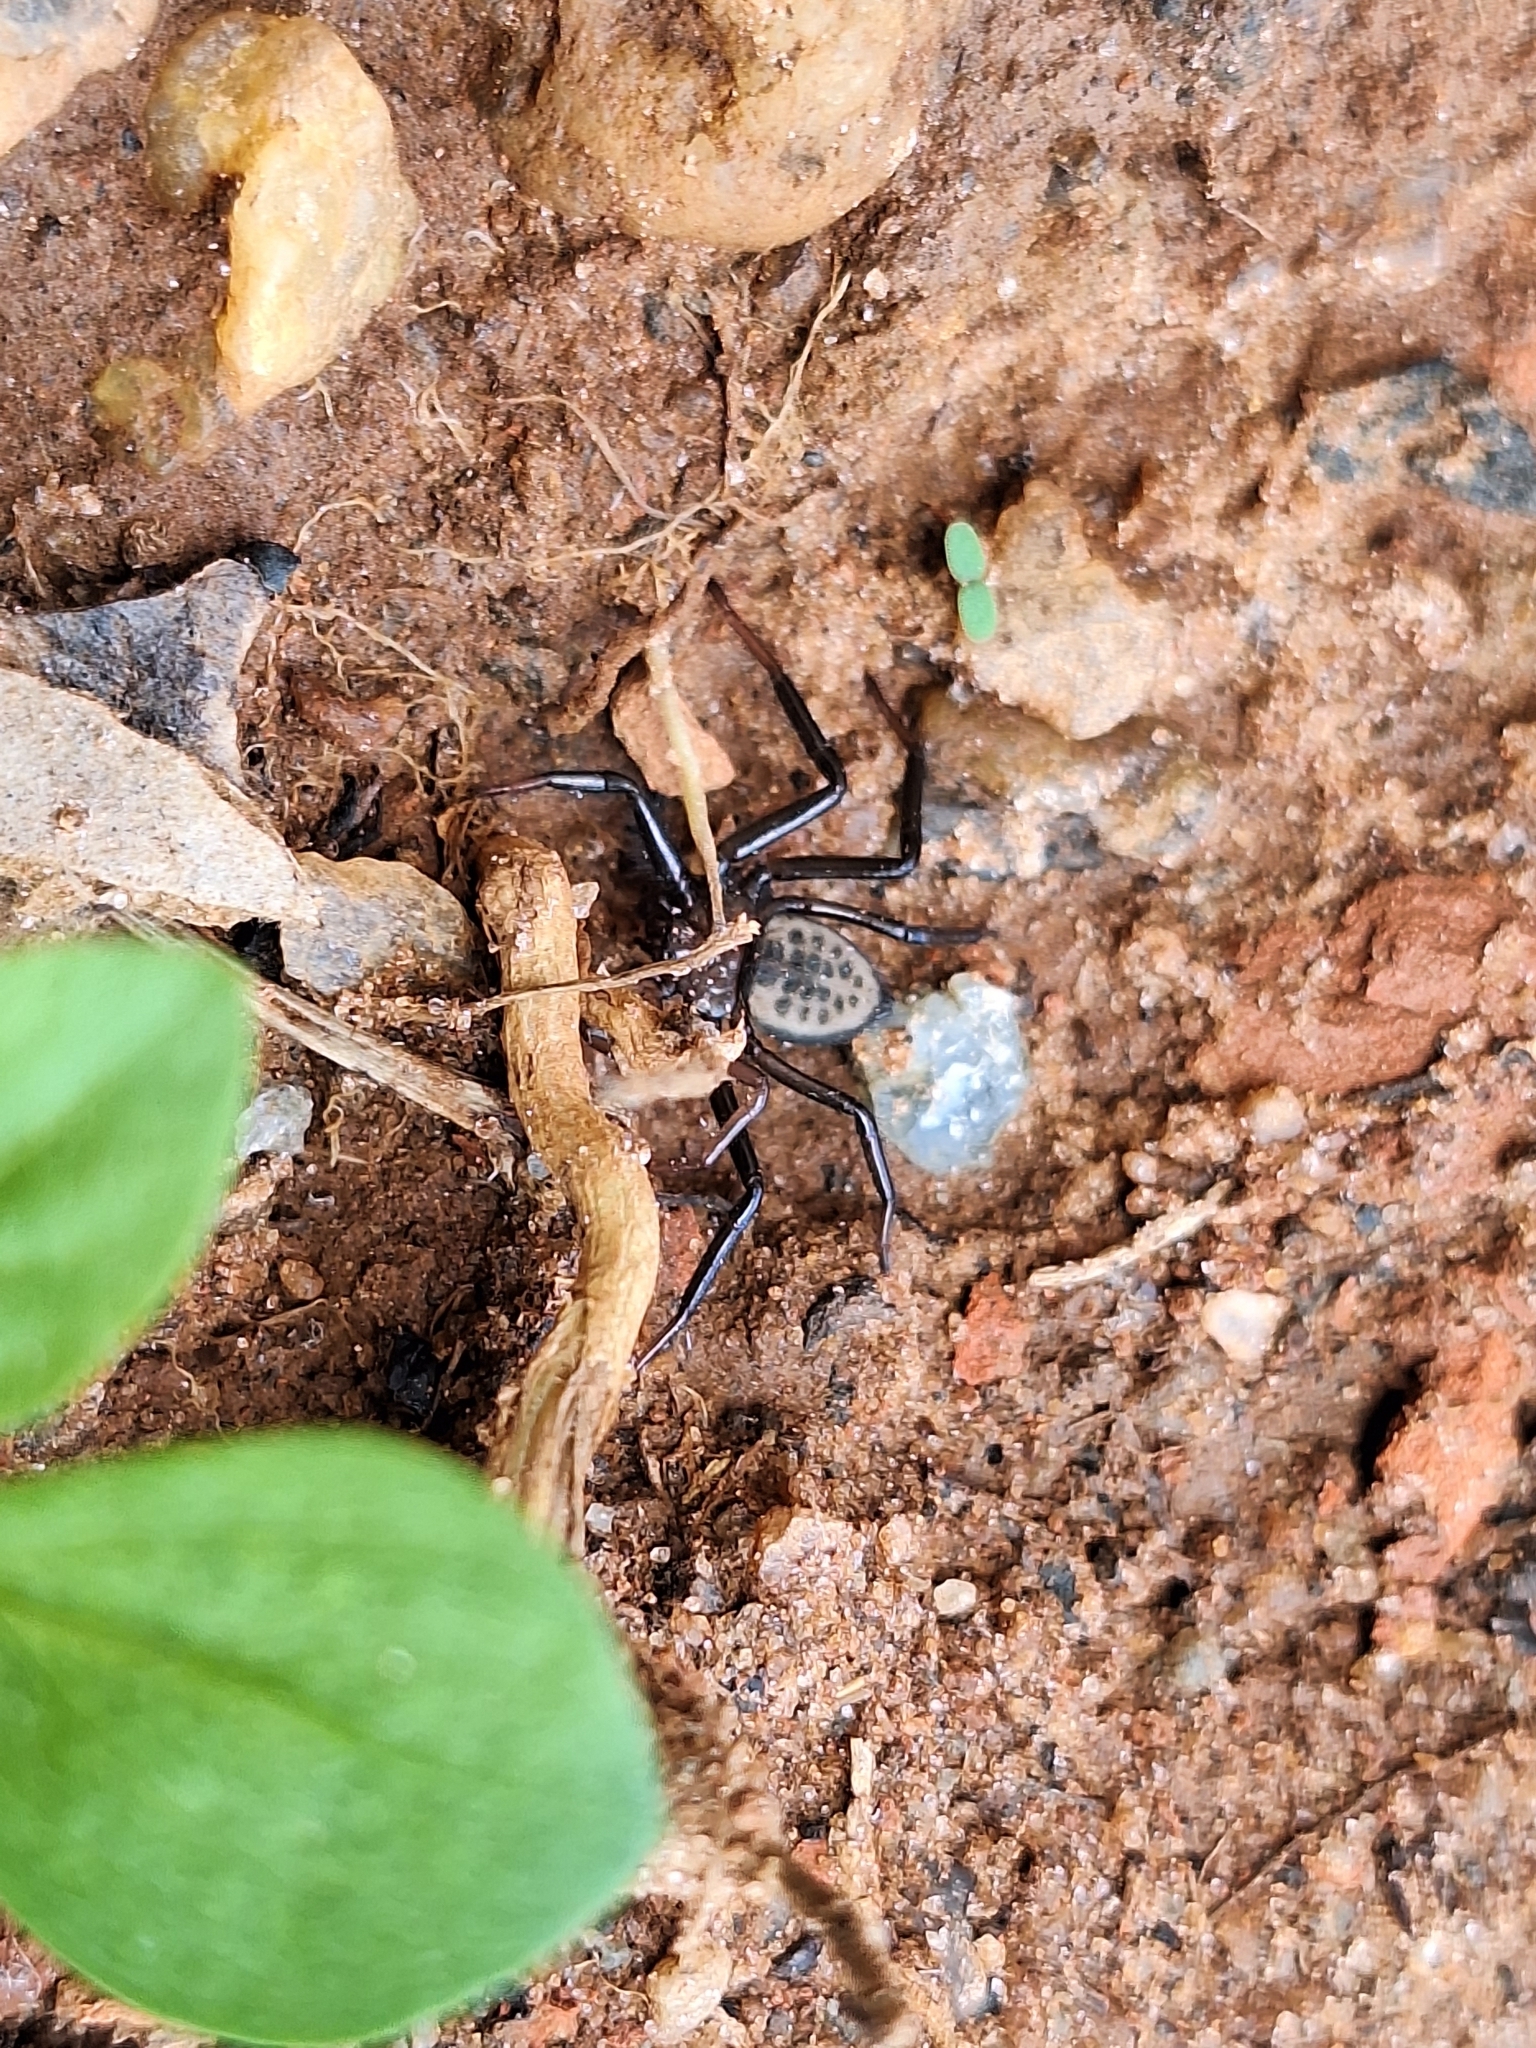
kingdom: Animalia
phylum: Arthropoda
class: Arachnida
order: Araneae
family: Trochanteriidae
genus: Vectius
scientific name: Vectius niger
